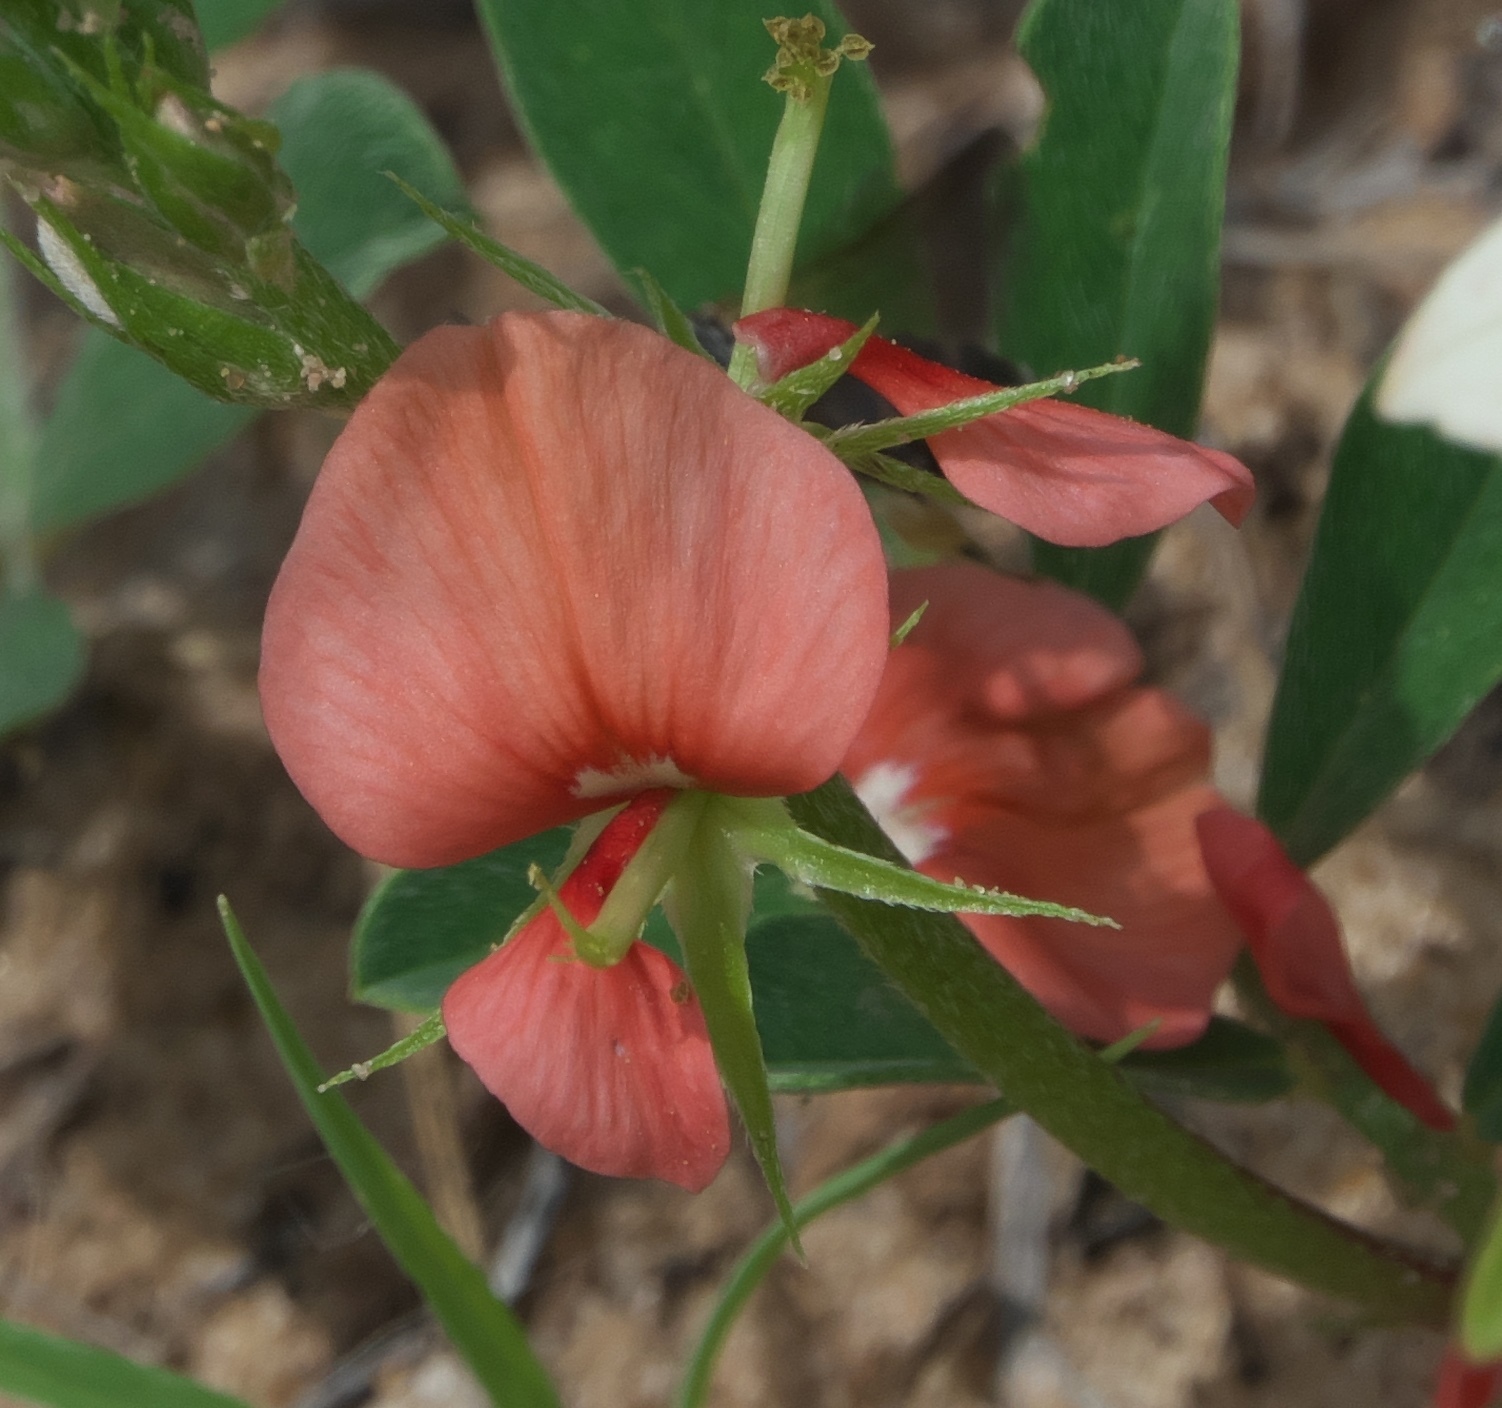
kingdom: Plantae
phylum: Tracheophyta
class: Magnoliopsida
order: Fabales
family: Fabaceae
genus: Indigofera
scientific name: Indigofera miniata
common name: Coast indigo
